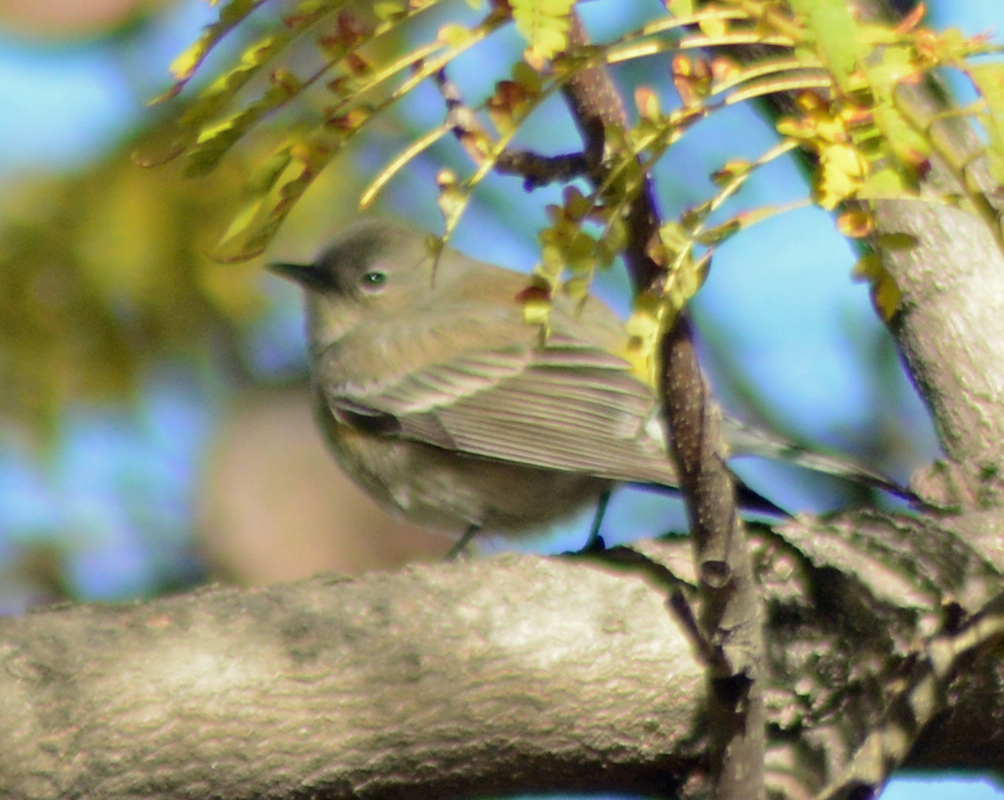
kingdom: Animalia
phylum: Chordata
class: Aves
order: Passeriformes
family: Parulidae
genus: Setophaga
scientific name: Setophaga coronata
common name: Myrtle warbler
